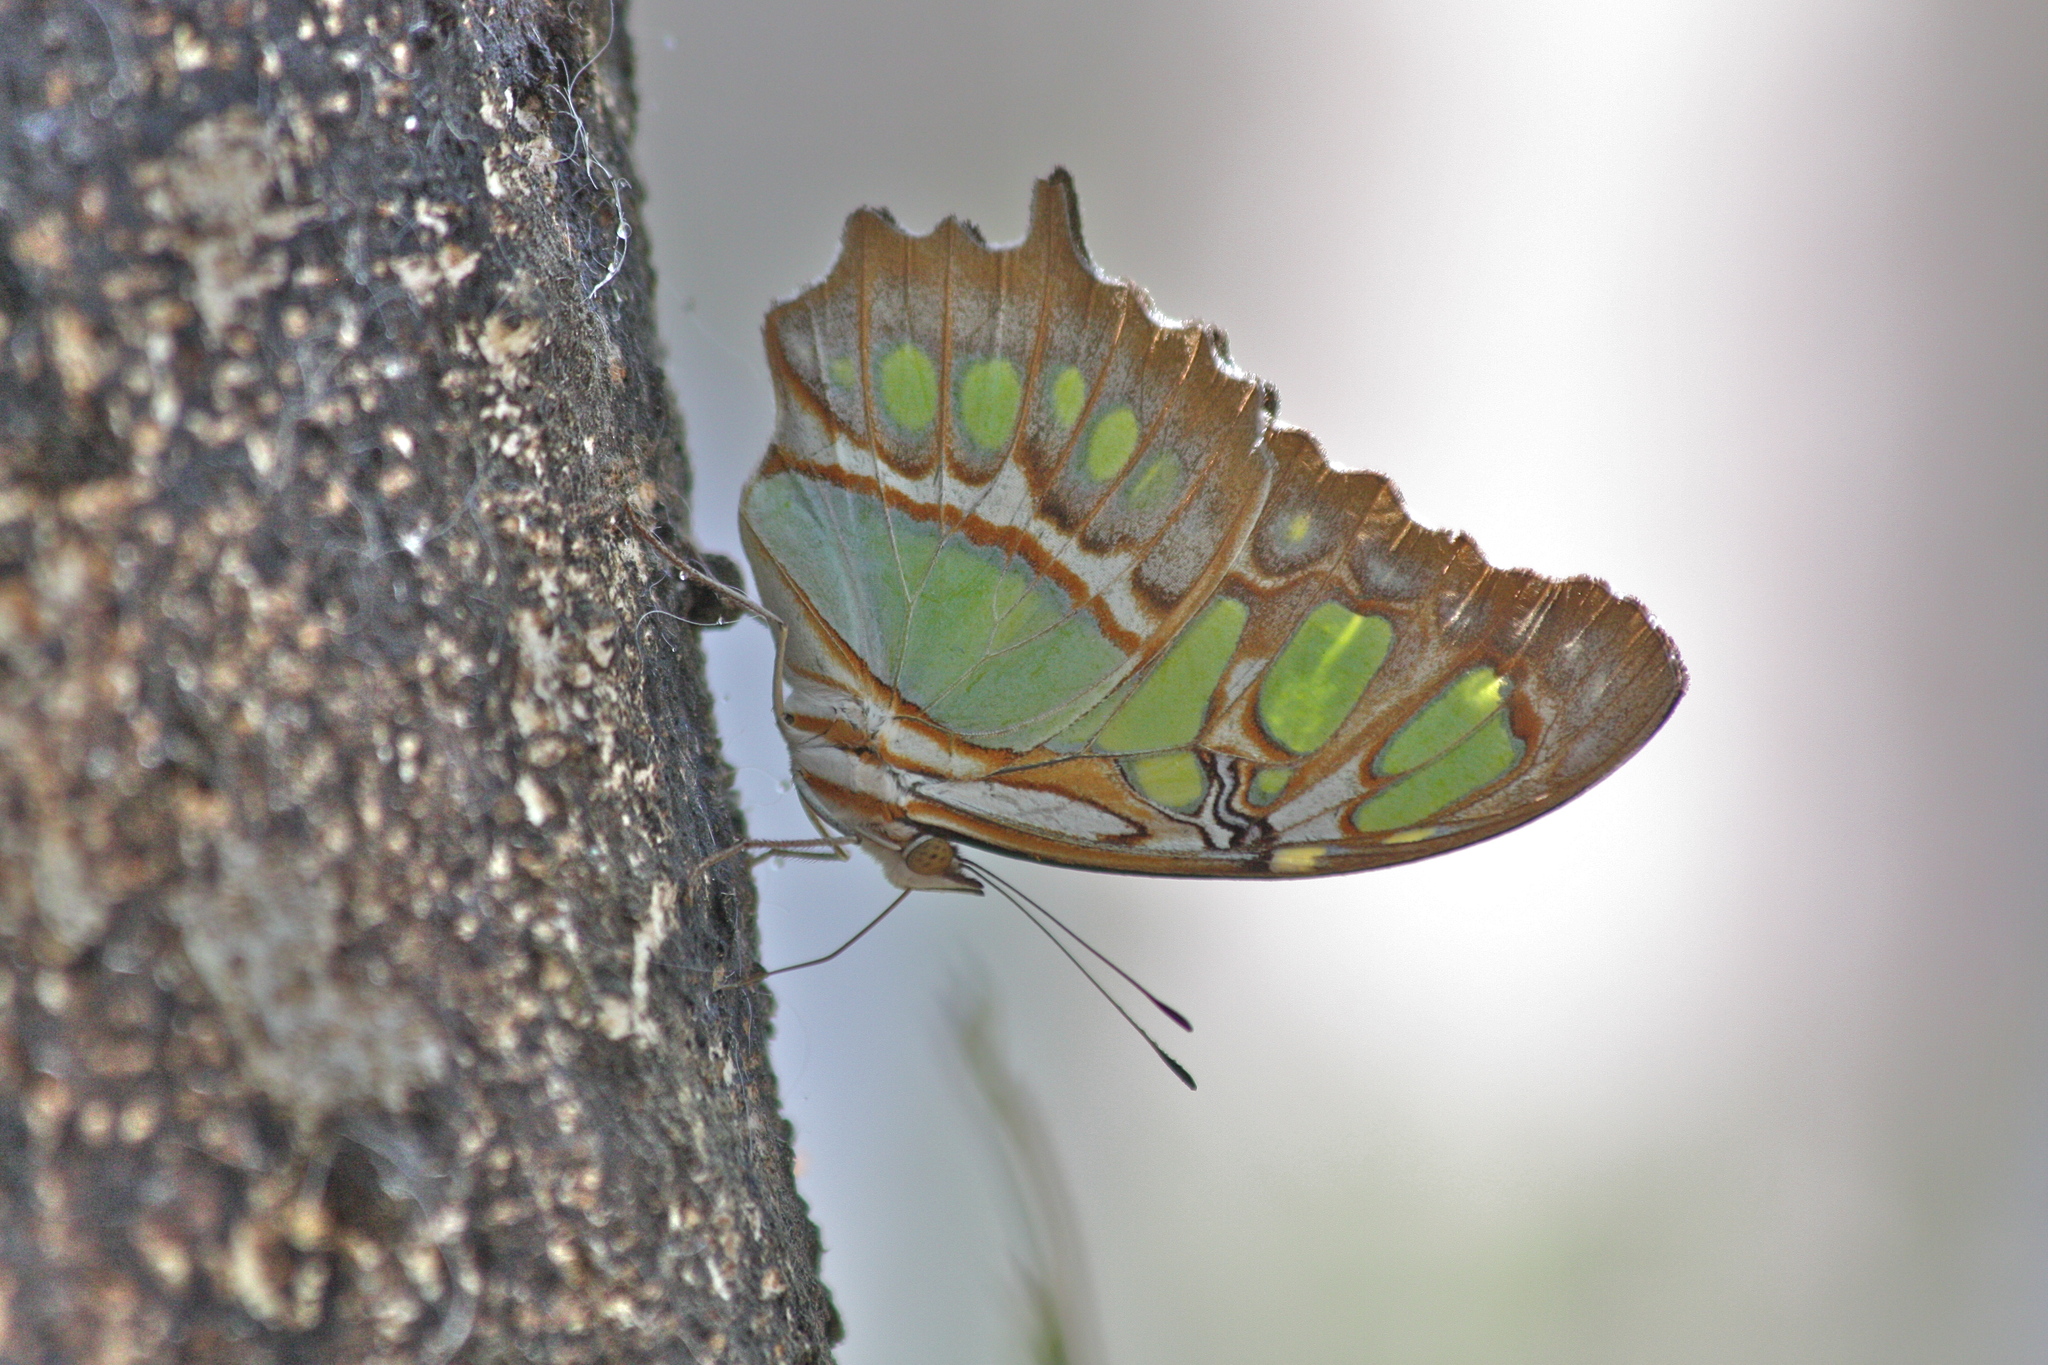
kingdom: Animalia
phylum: Arthropoda
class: Insecta
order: Lepidoptera
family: Nymphalidae
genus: Siproeta
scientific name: Siproeta stelenes
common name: Malachite
